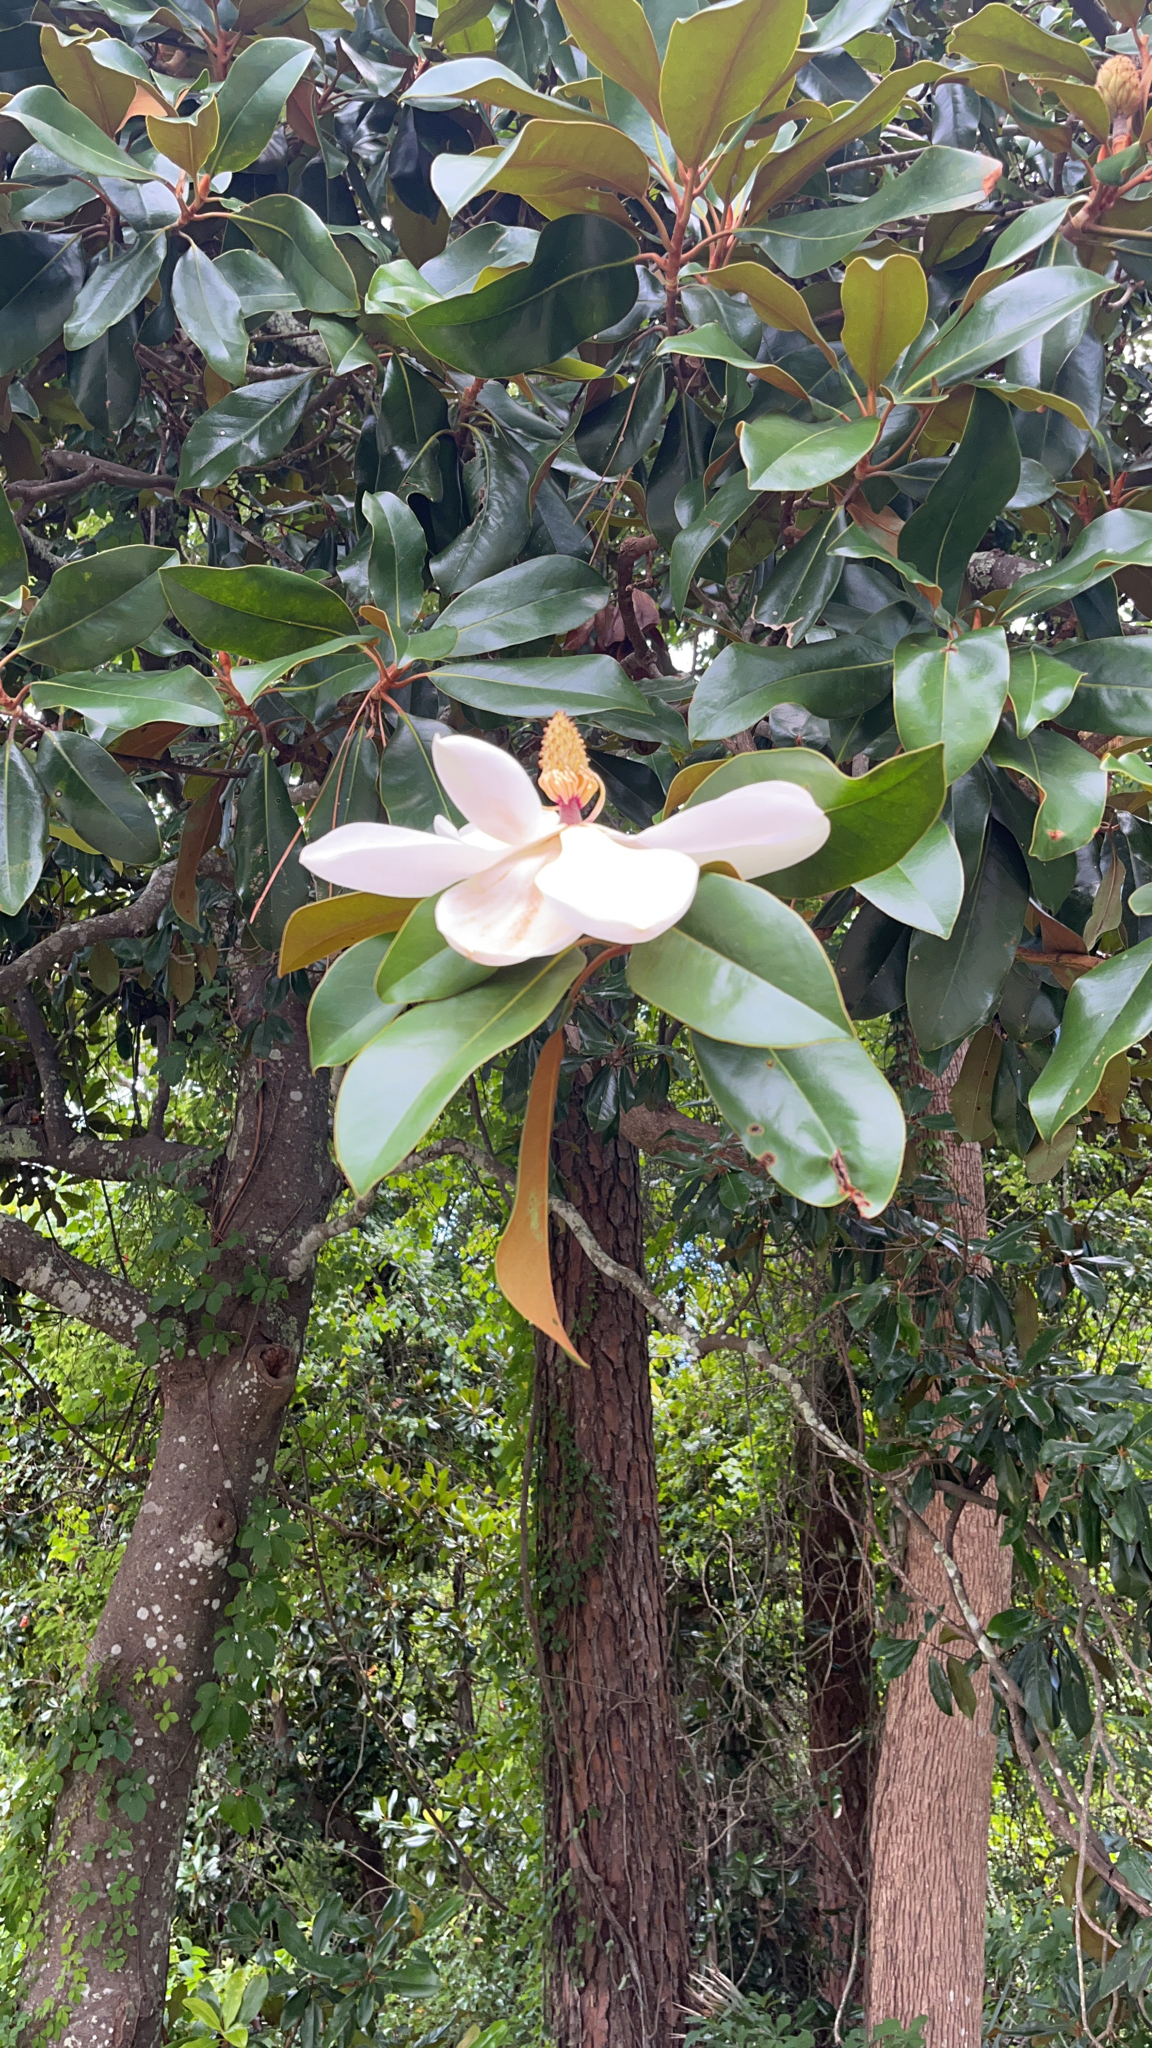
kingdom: Plantae
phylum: Tracheophyta
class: Magnoliopsida
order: Magnoliales
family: Magnoliaceae
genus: Magnolia
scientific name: Magnolia grandiflora
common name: Southern magnolia
